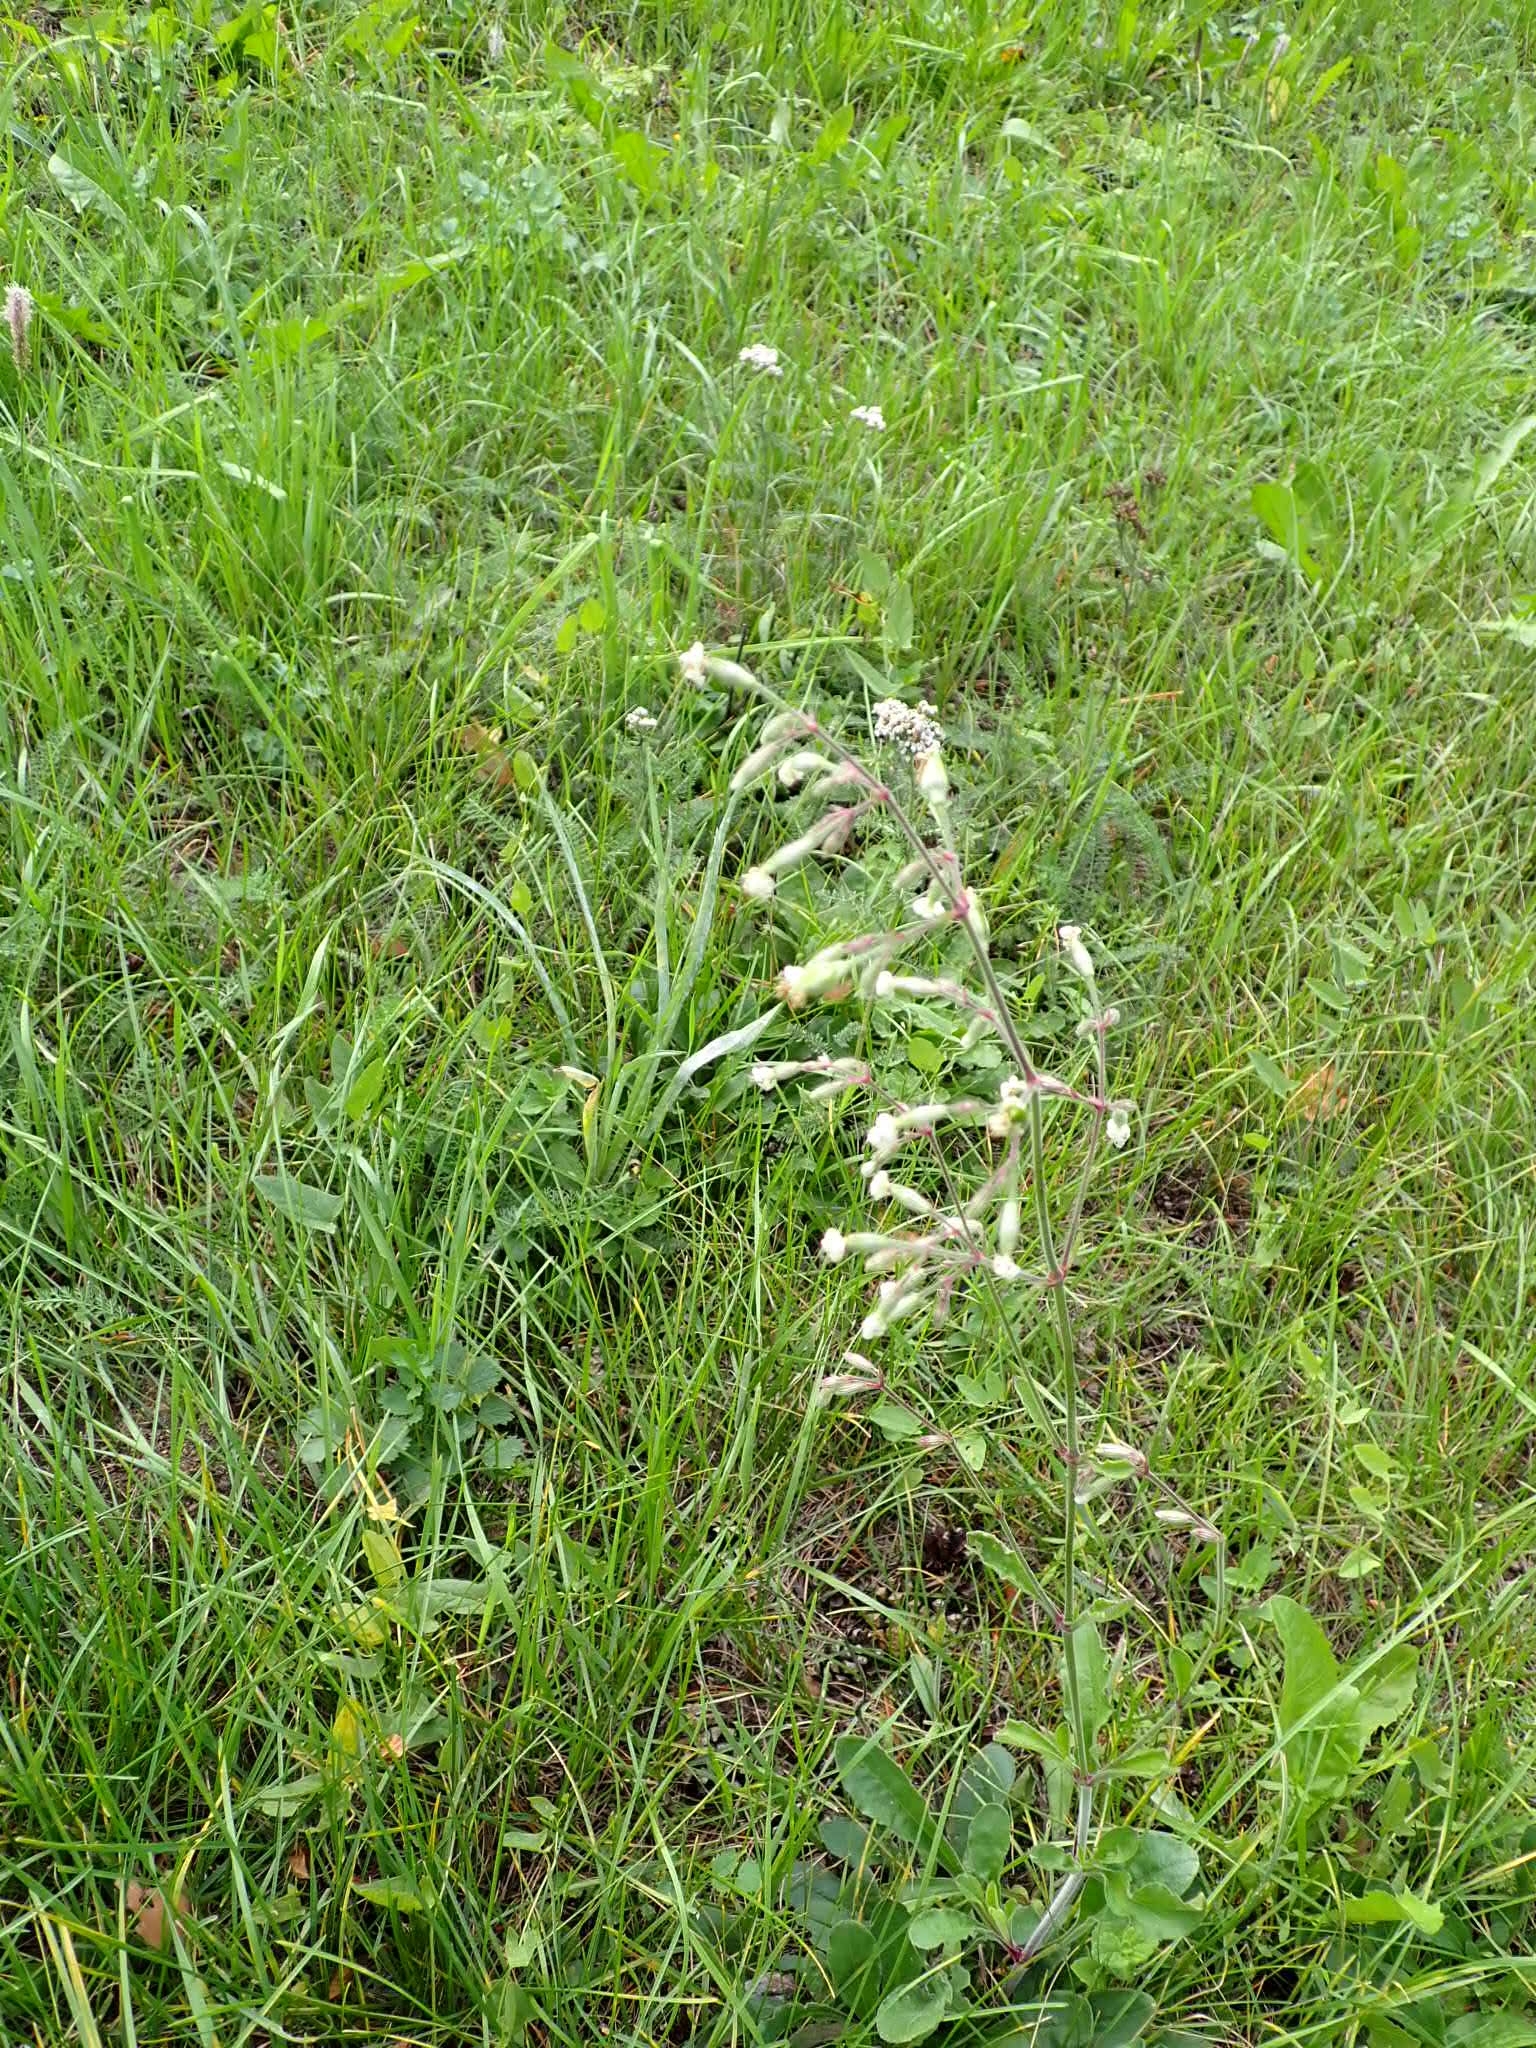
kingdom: Plantae
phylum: Tracheophyta
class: Magnoliopsida
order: Caryophyllales
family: Caryophyllaceae
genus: Silene
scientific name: Silene nutans
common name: Nottingham catchfly
